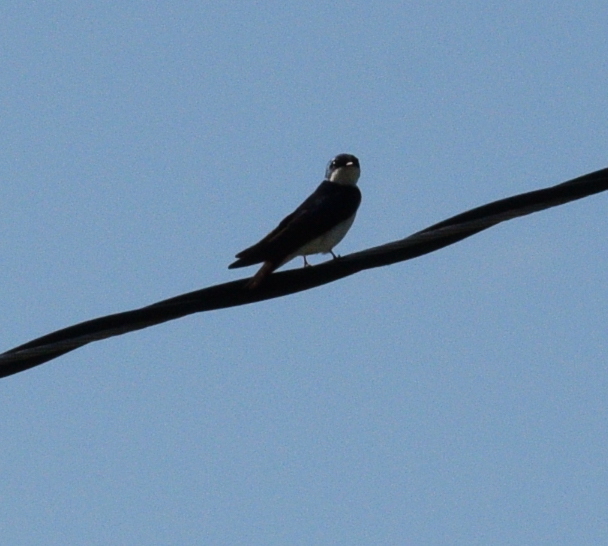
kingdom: Animalia
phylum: Chordata
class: Aves
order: Passeriformes
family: Hirundinidae
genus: Tachycineta
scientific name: Tachycineta bicolor
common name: Tree swallow
